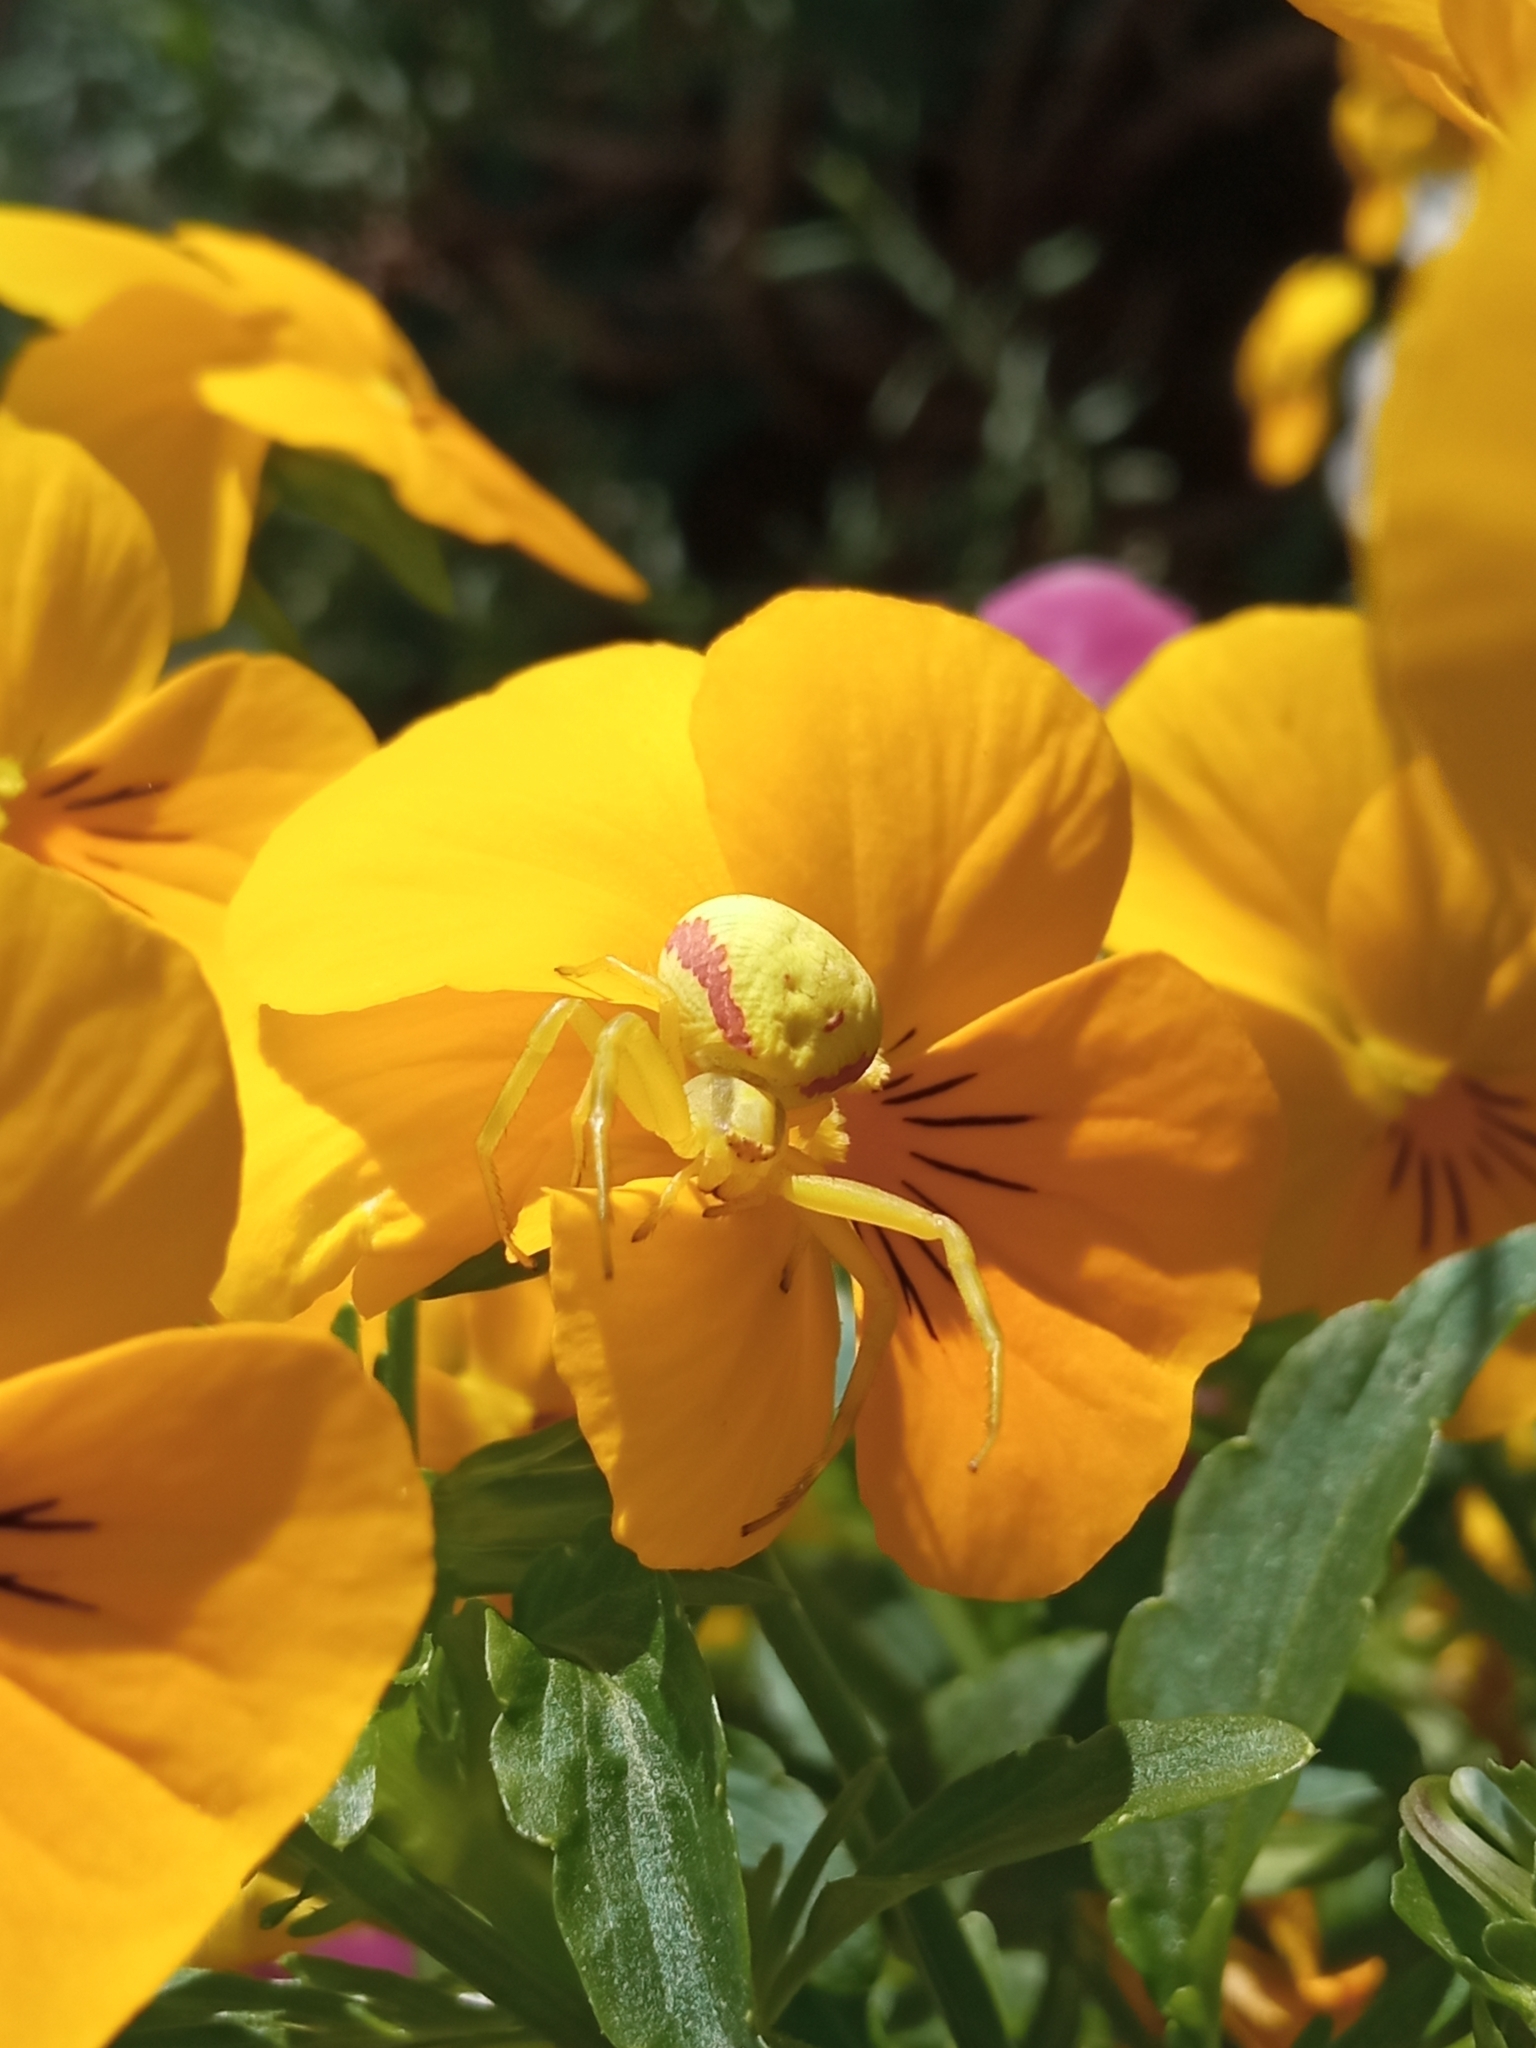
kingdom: Animalia
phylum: Arthropoda
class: Arachnida
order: Araneae
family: Thomisidae
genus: Misumena
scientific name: Misumena vatia
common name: Goldenrod crab spider
